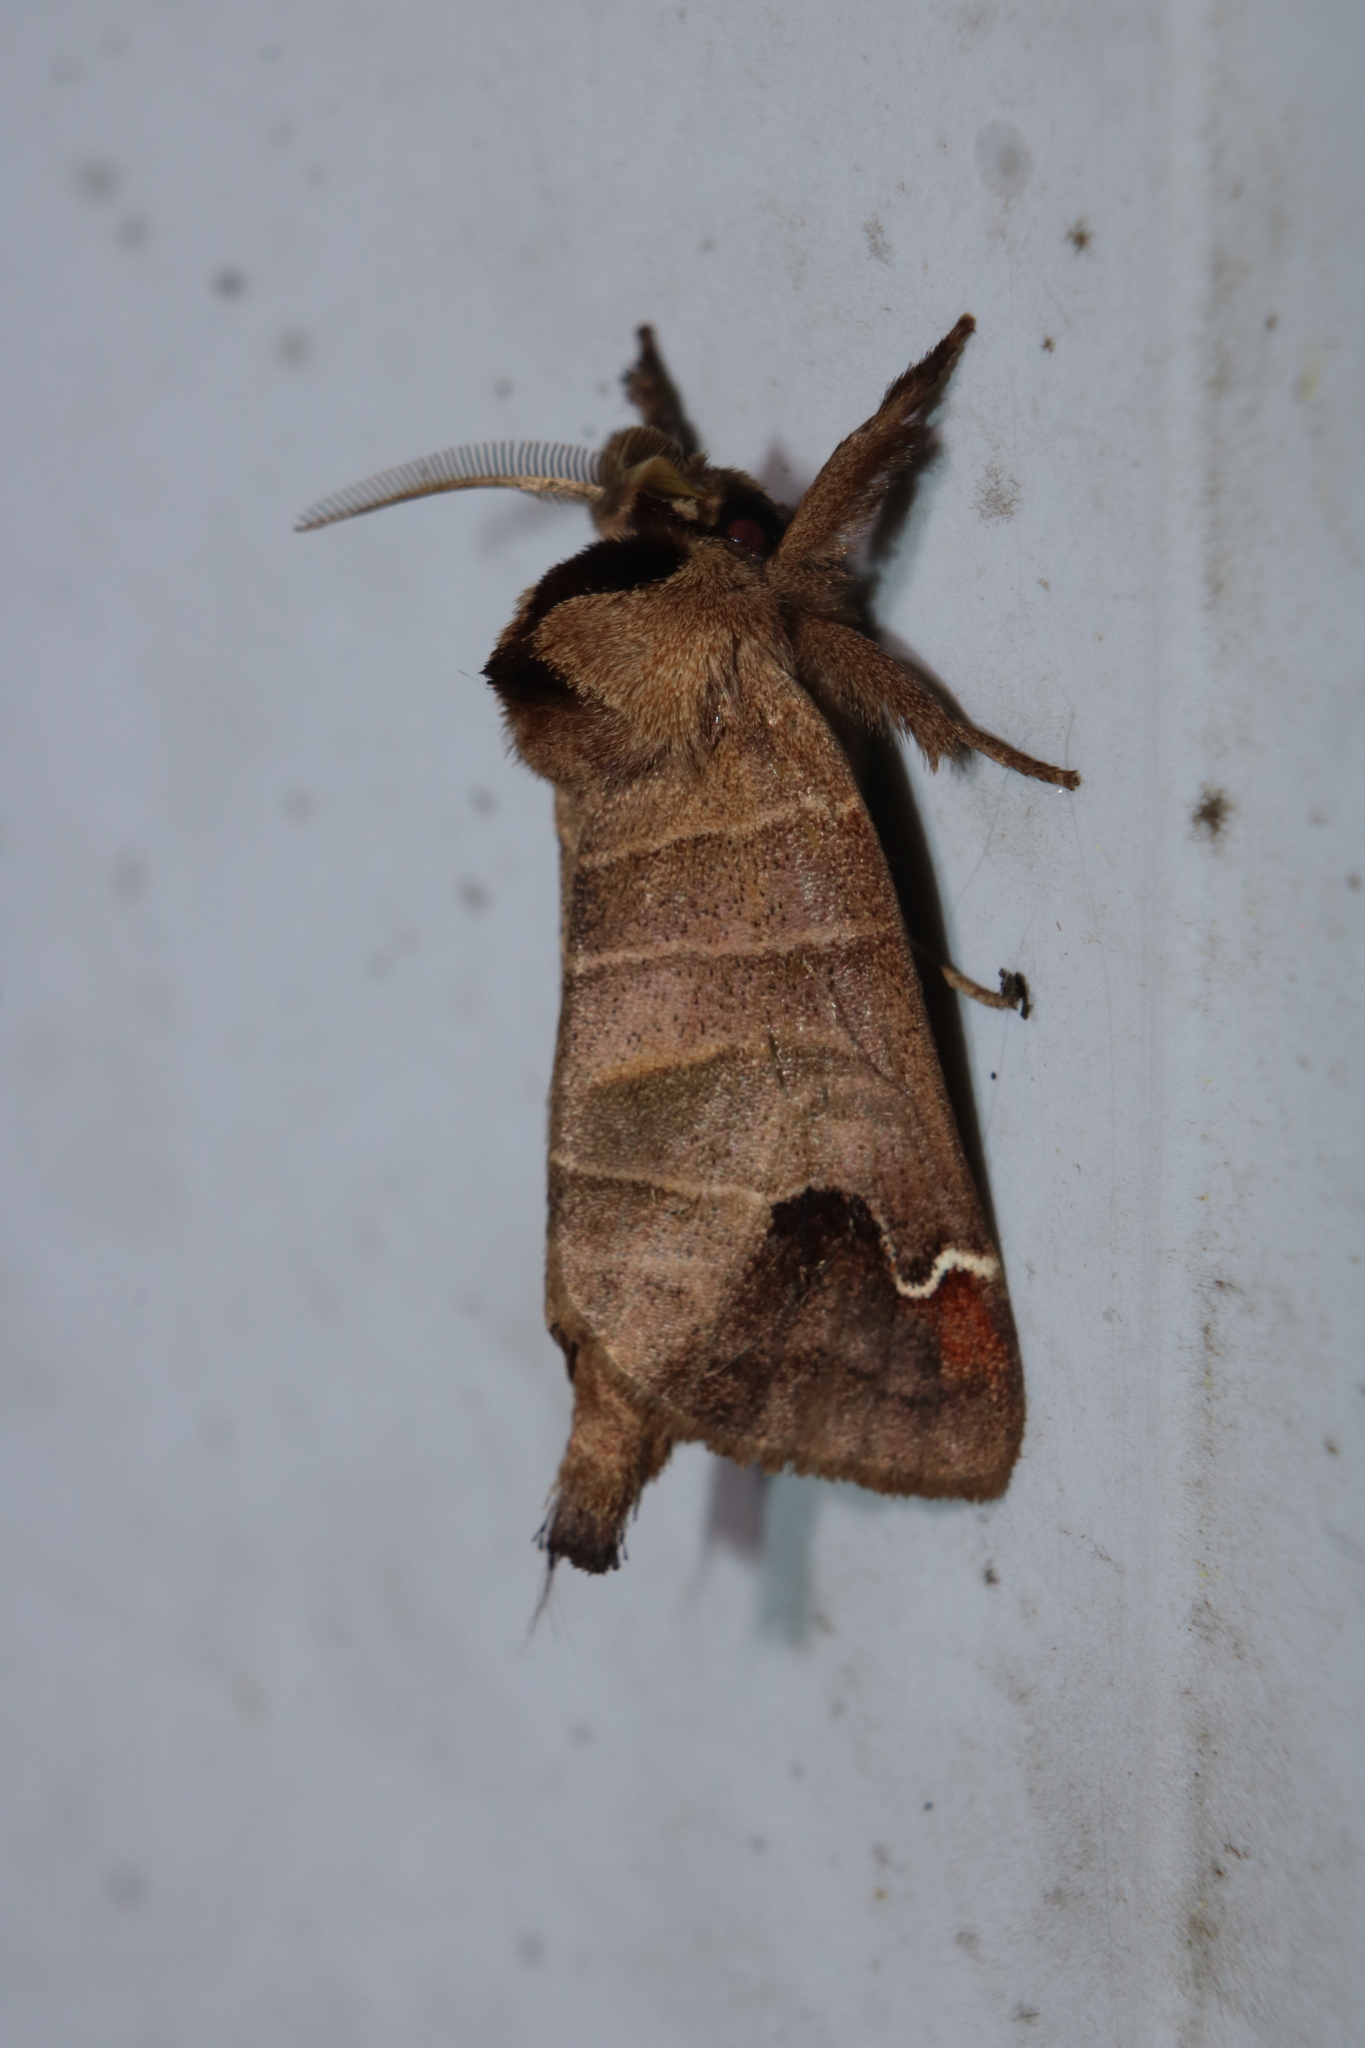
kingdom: Animalia
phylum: Arthropoda
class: Insecta
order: Lepidoptera
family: Notodontidae
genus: Clostera
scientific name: Clostera albosigma
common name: Sigmoid prominent
